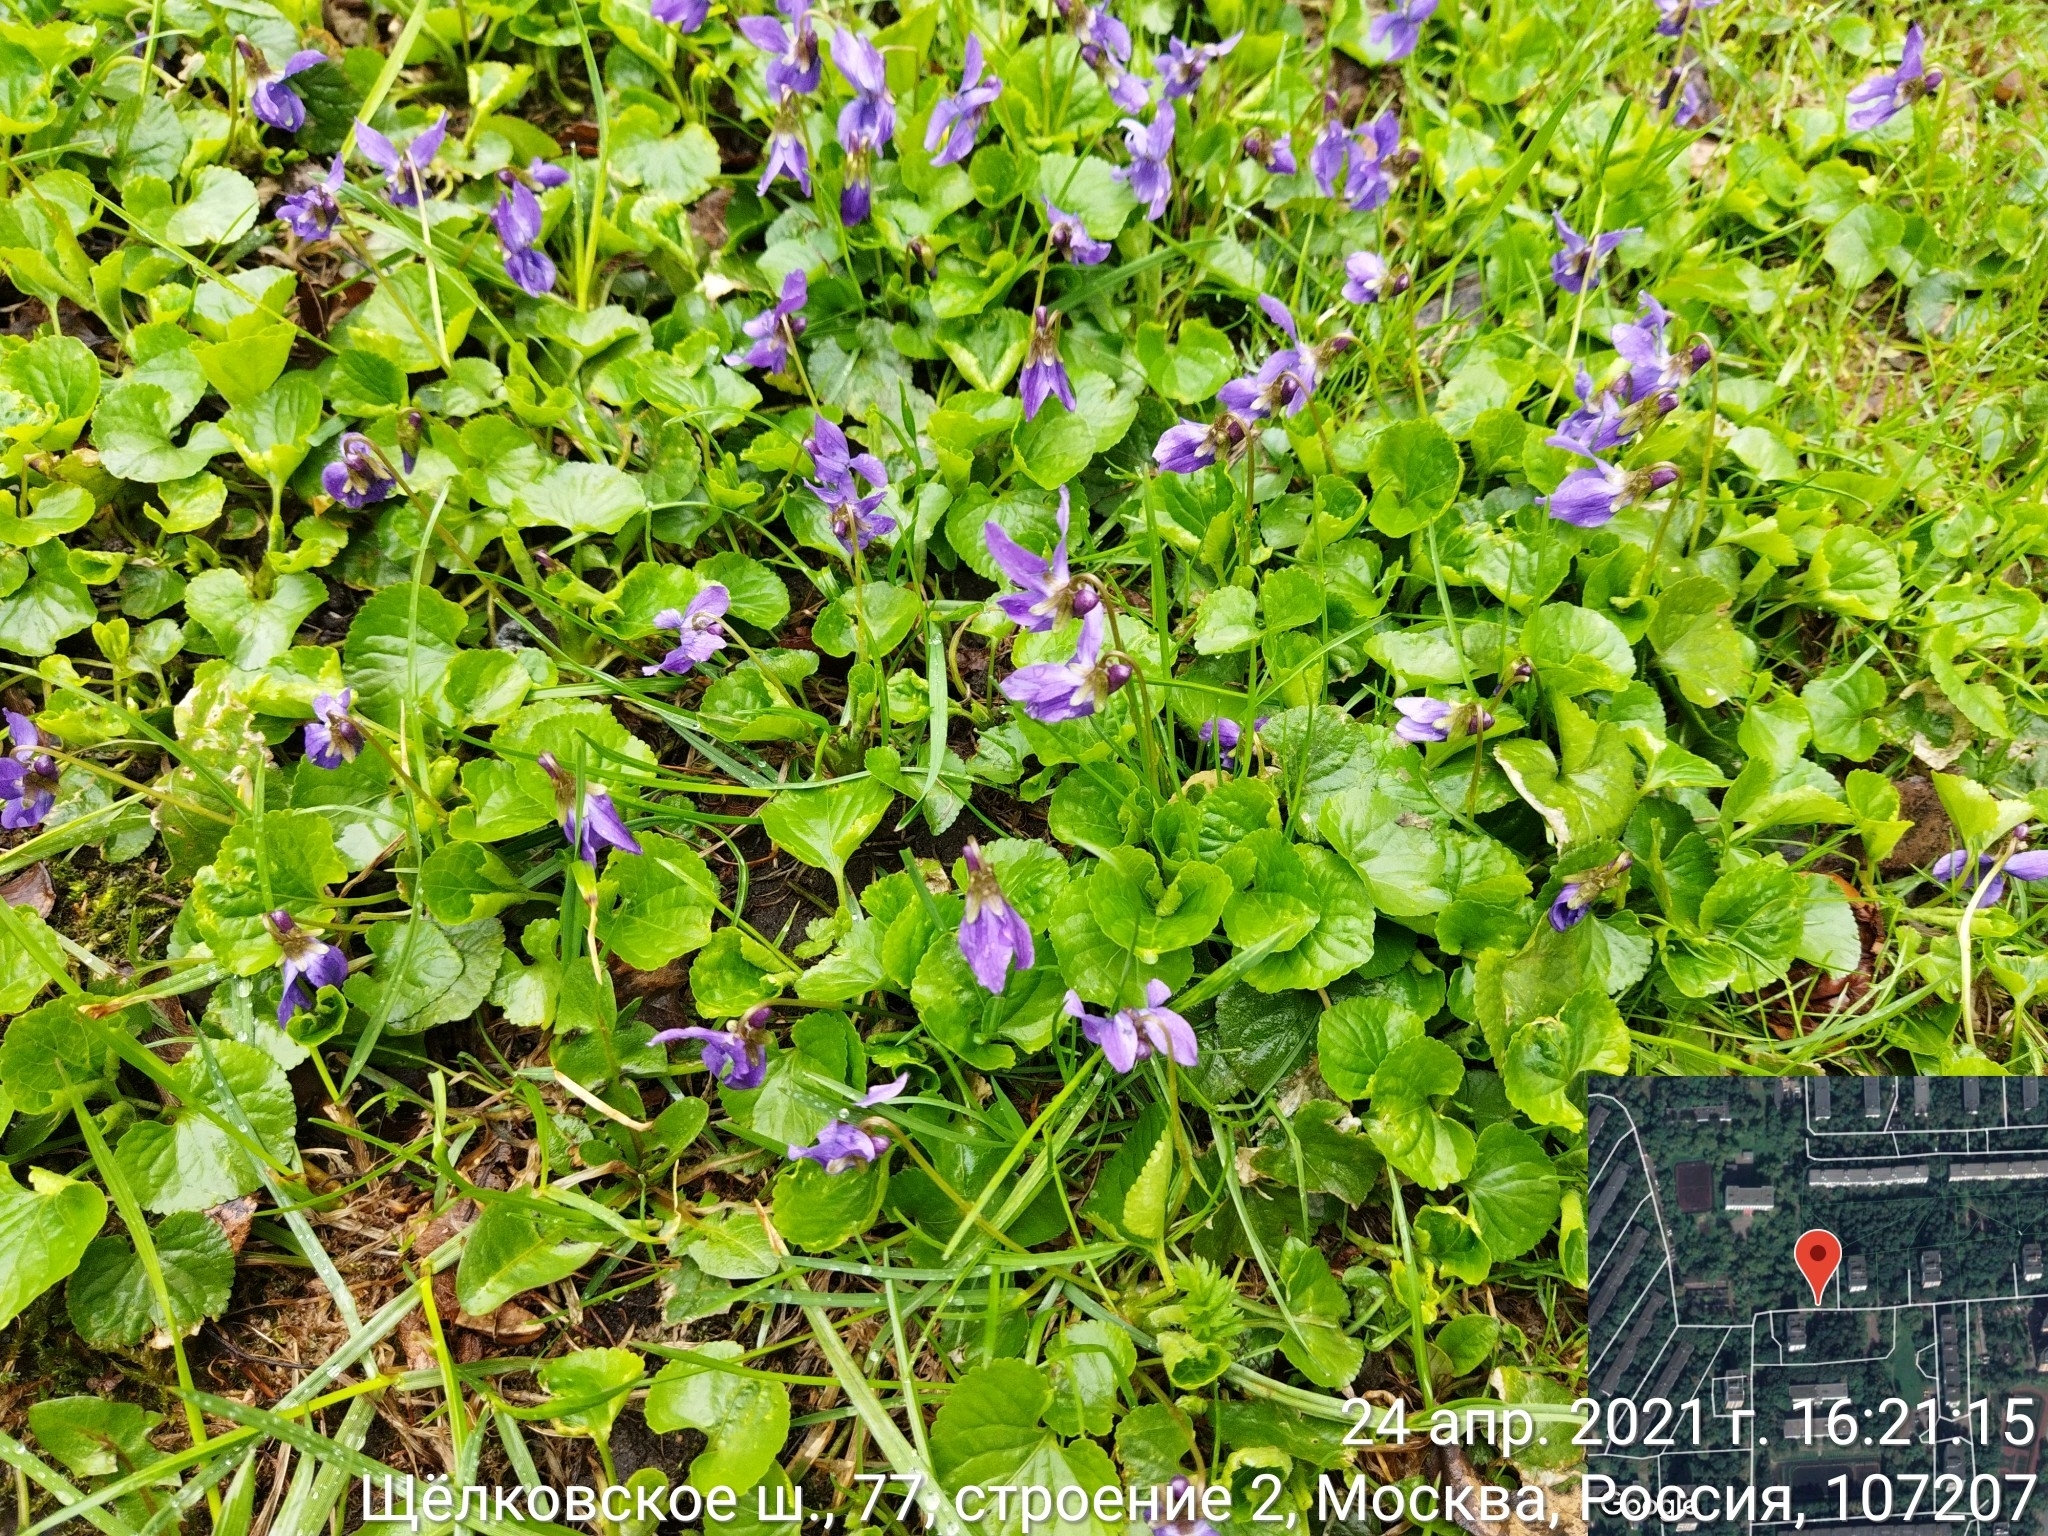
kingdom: Plantae
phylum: Tracheophyta
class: Magnoliopsida
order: Malpighiales
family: Violaceae
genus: Viola
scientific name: Viola odorata
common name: Sweet violet
